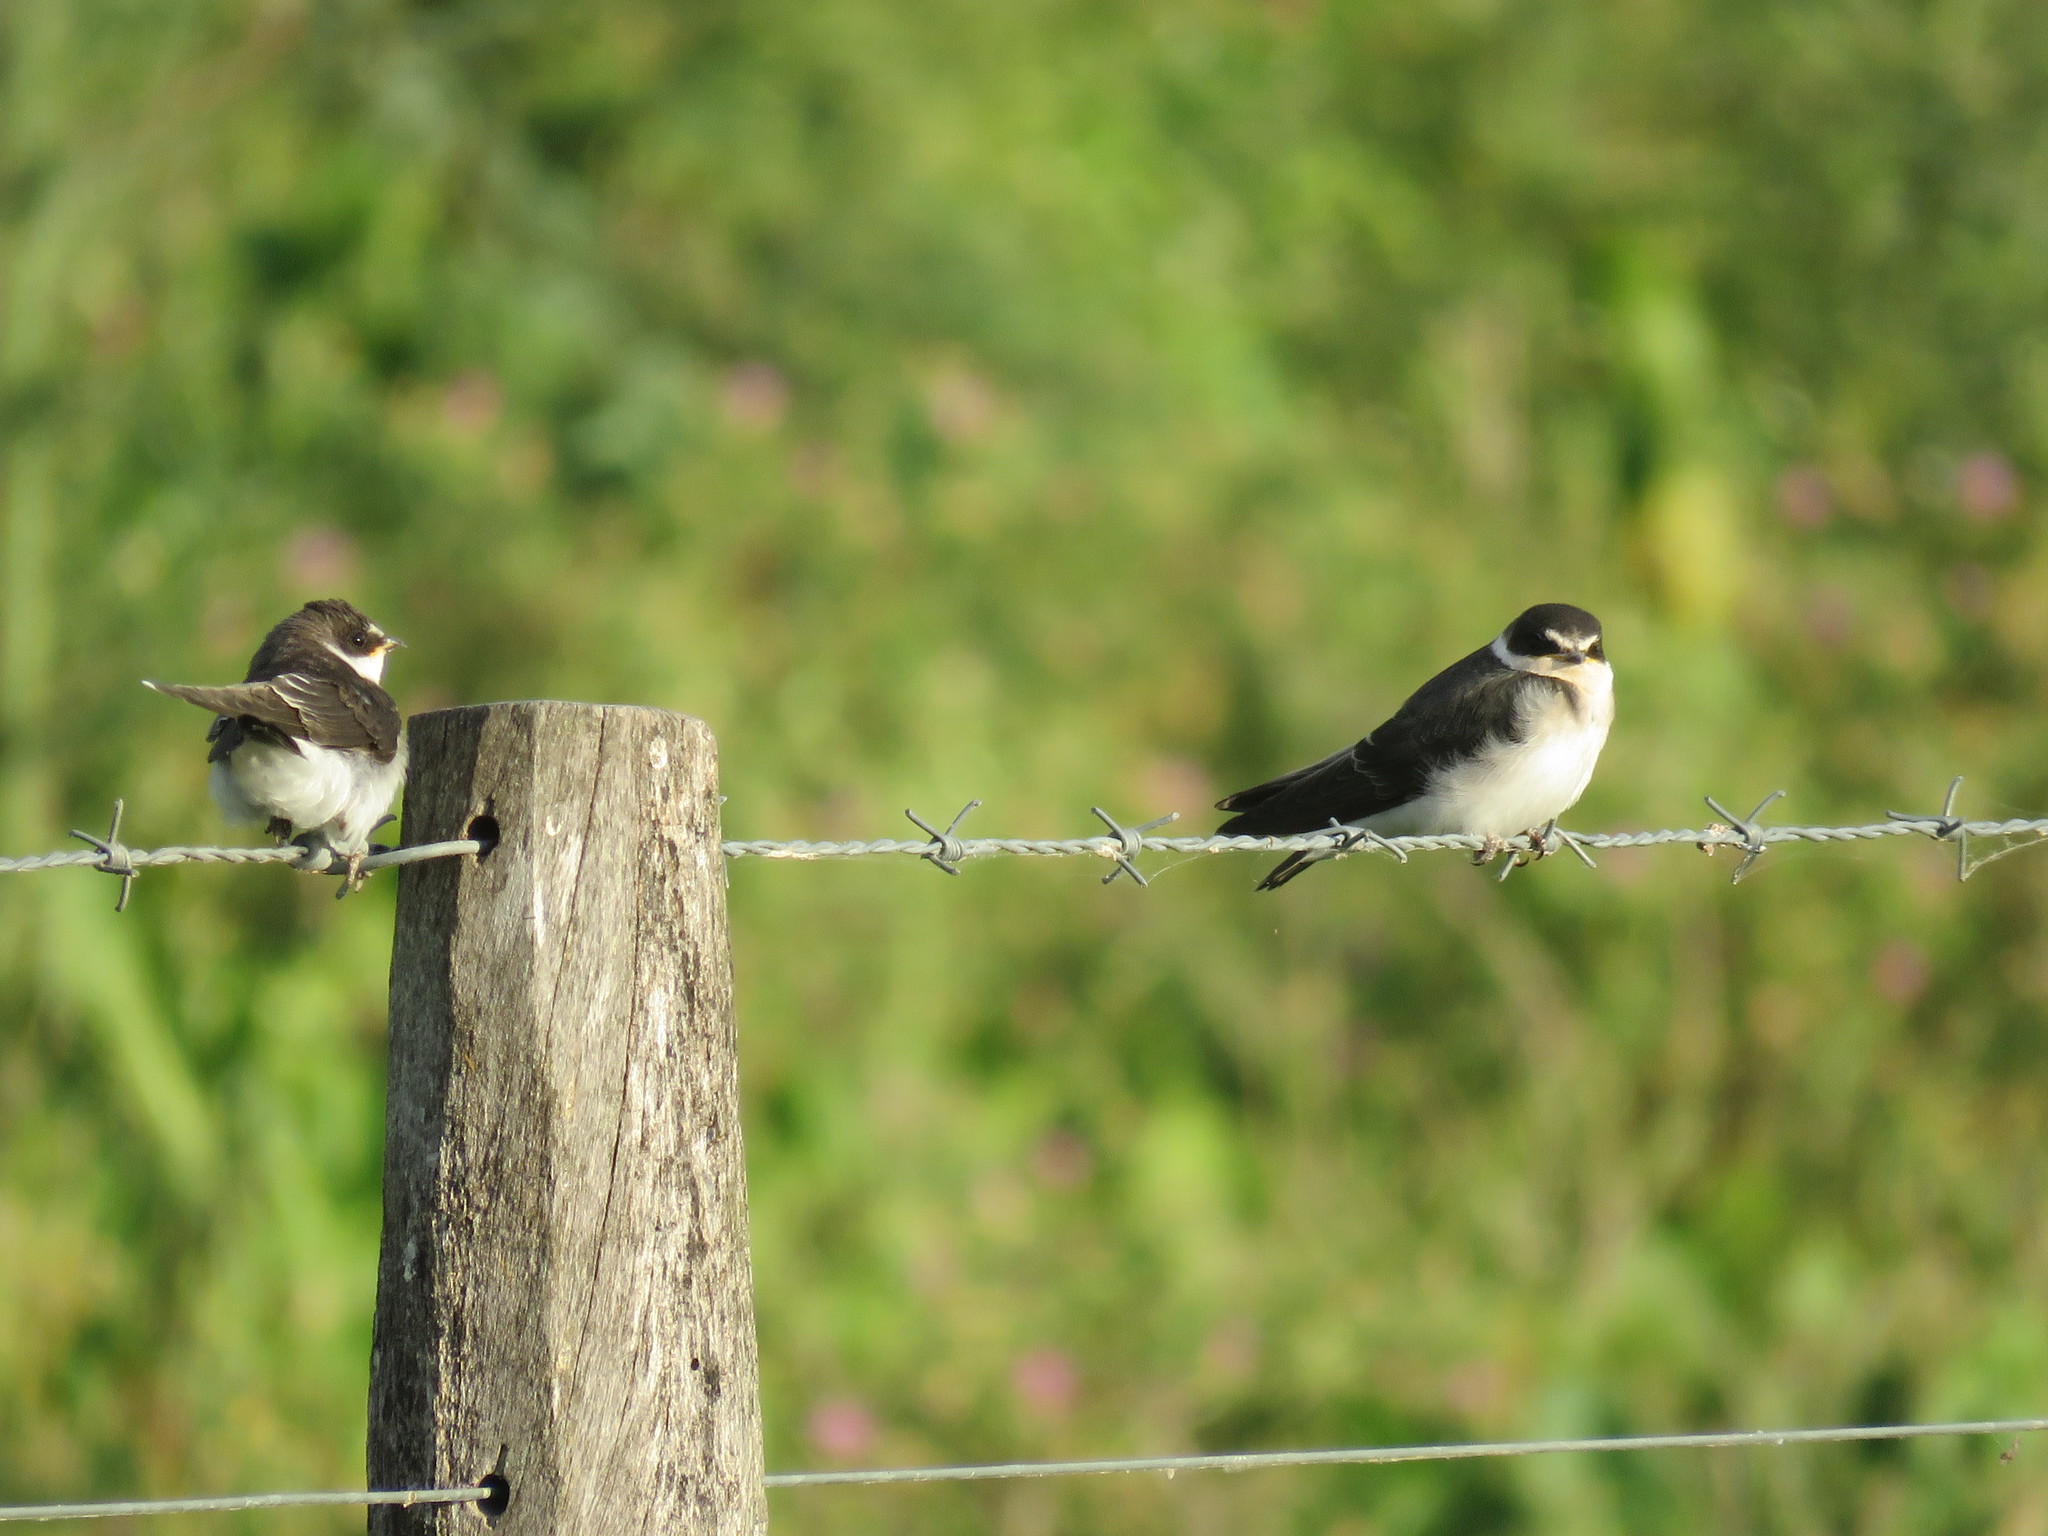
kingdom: Animalia
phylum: Chordata
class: Aves
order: Passeriformes
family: Hirundinidae
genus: Tachycineta
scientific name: Tachycineta leucorrhoa
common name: White-rumped swallow
